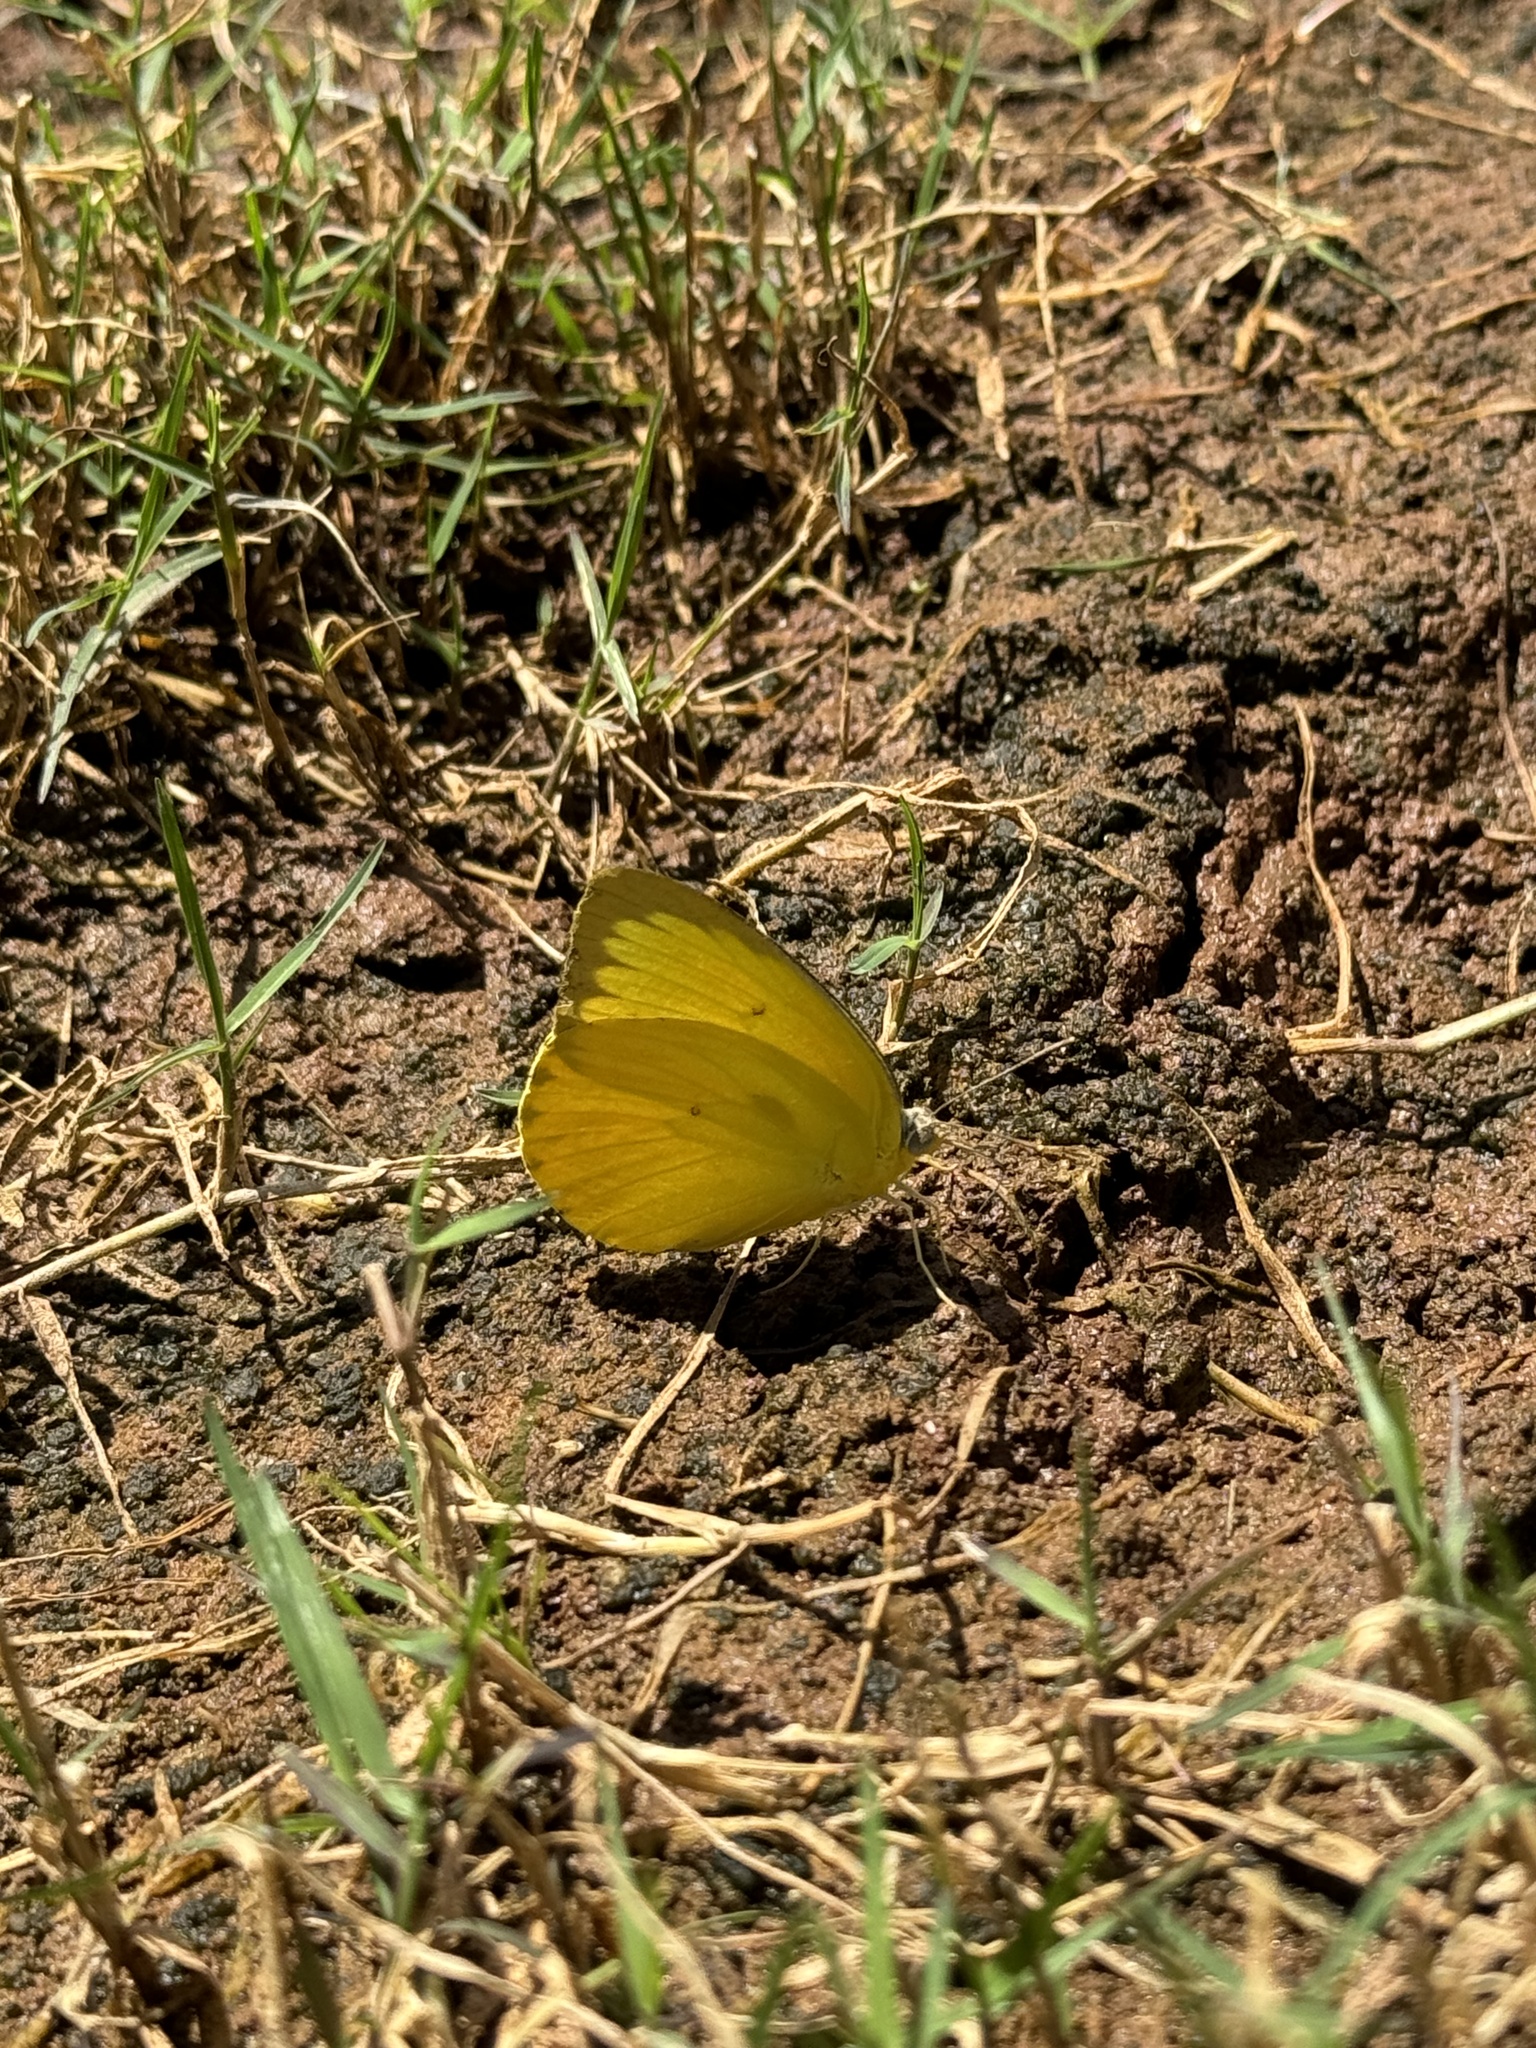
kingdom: Animalia
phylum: Arthropoda
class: Insecta
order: Lepidoptera
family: Pieridae
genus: Catopsilia
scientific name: Catopsilia scylla
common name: Orange emigrant
